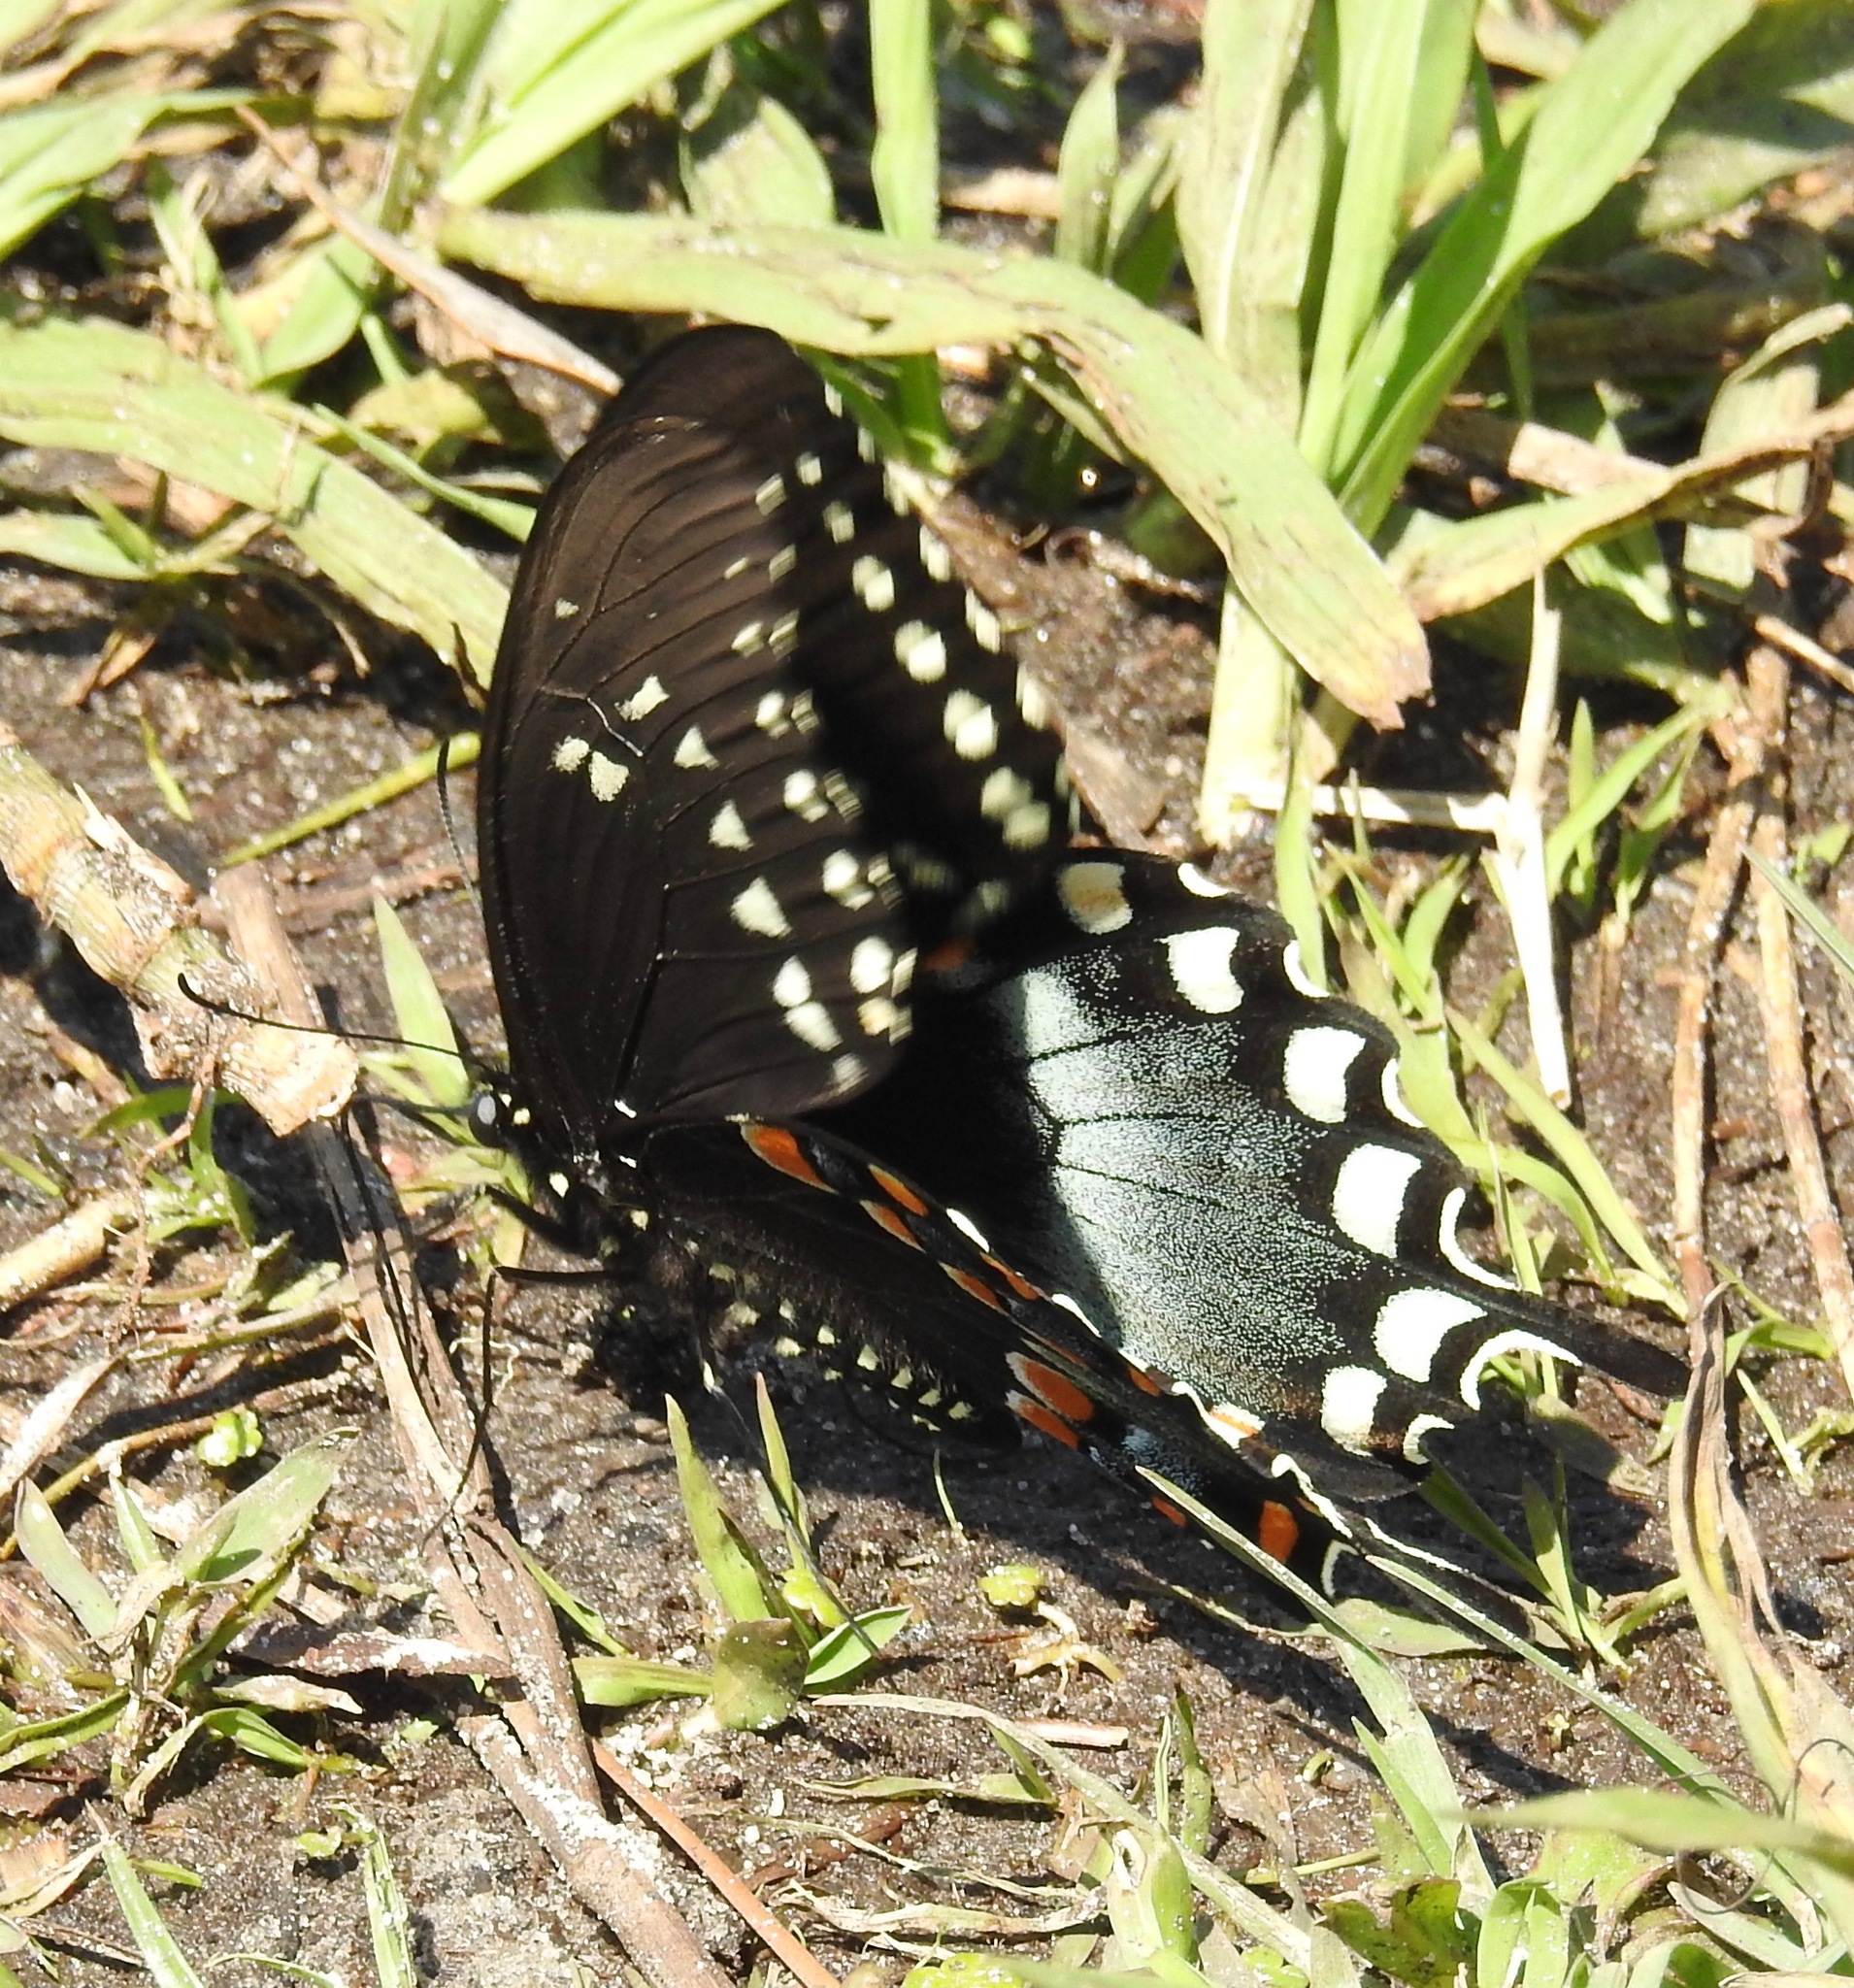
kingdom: Animalia
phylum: Arthropoda
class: Insecta
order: Lepidoptera
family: Papilionidae
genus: Papilio
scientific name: Papilio troilus
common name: Spicebush swallowtail
